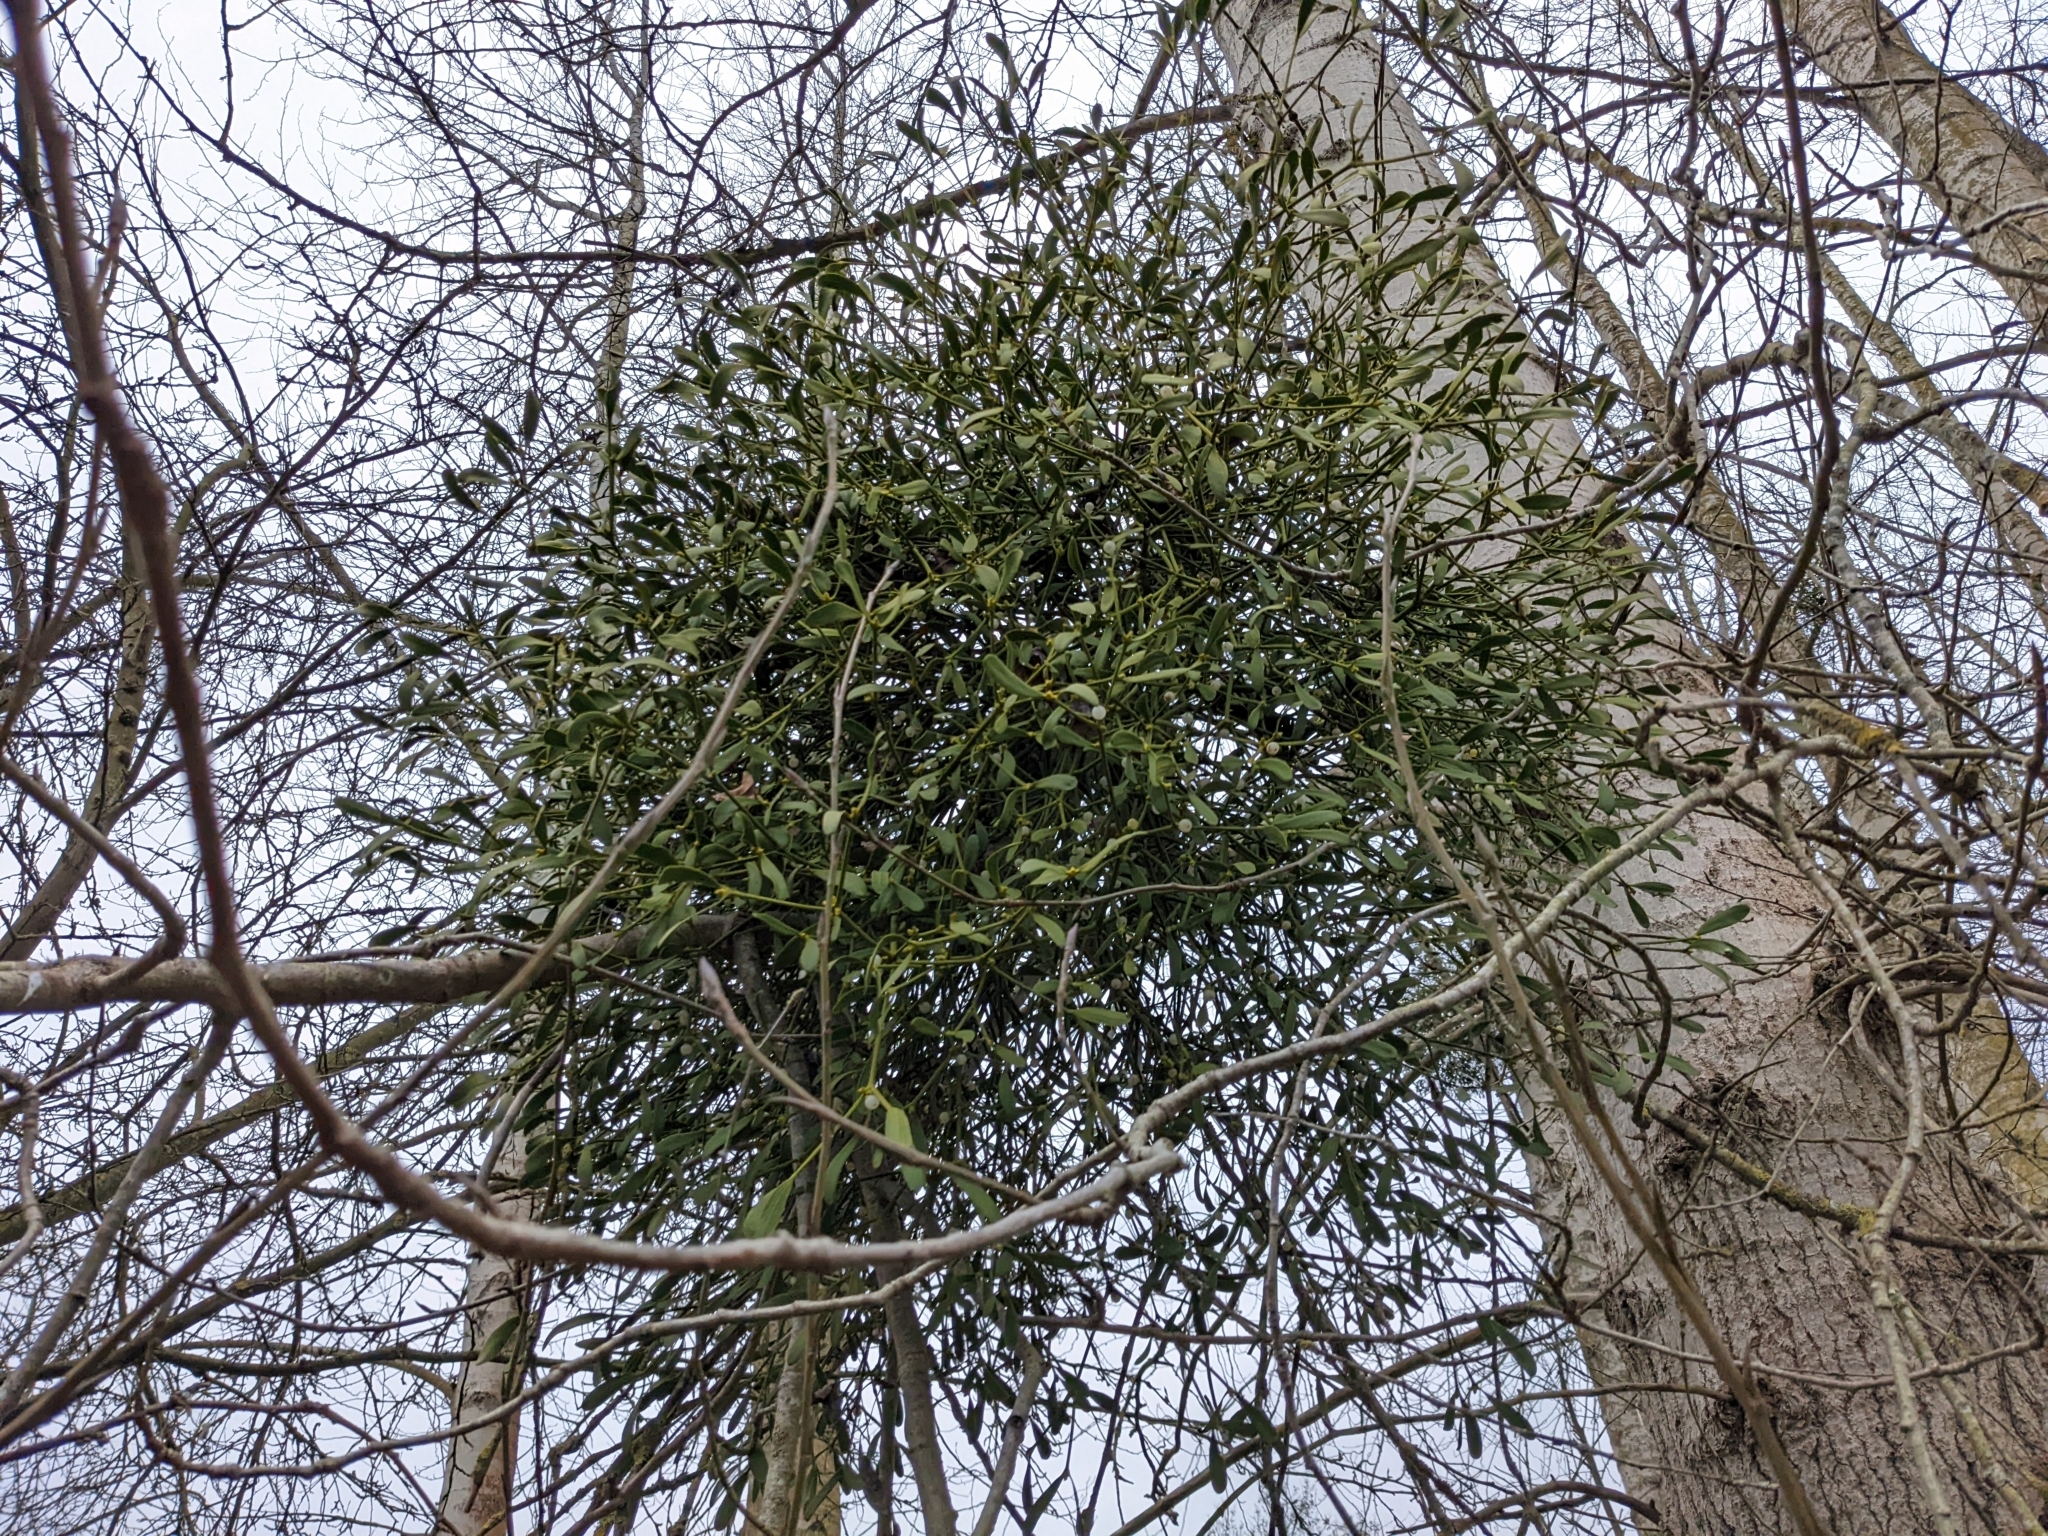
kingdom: Plantae
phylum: Tracheophyta
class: Magnoliopsida
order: Santalales
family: Viscaceae
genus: Viscum
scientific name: Viscum album
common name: Mistletoe
